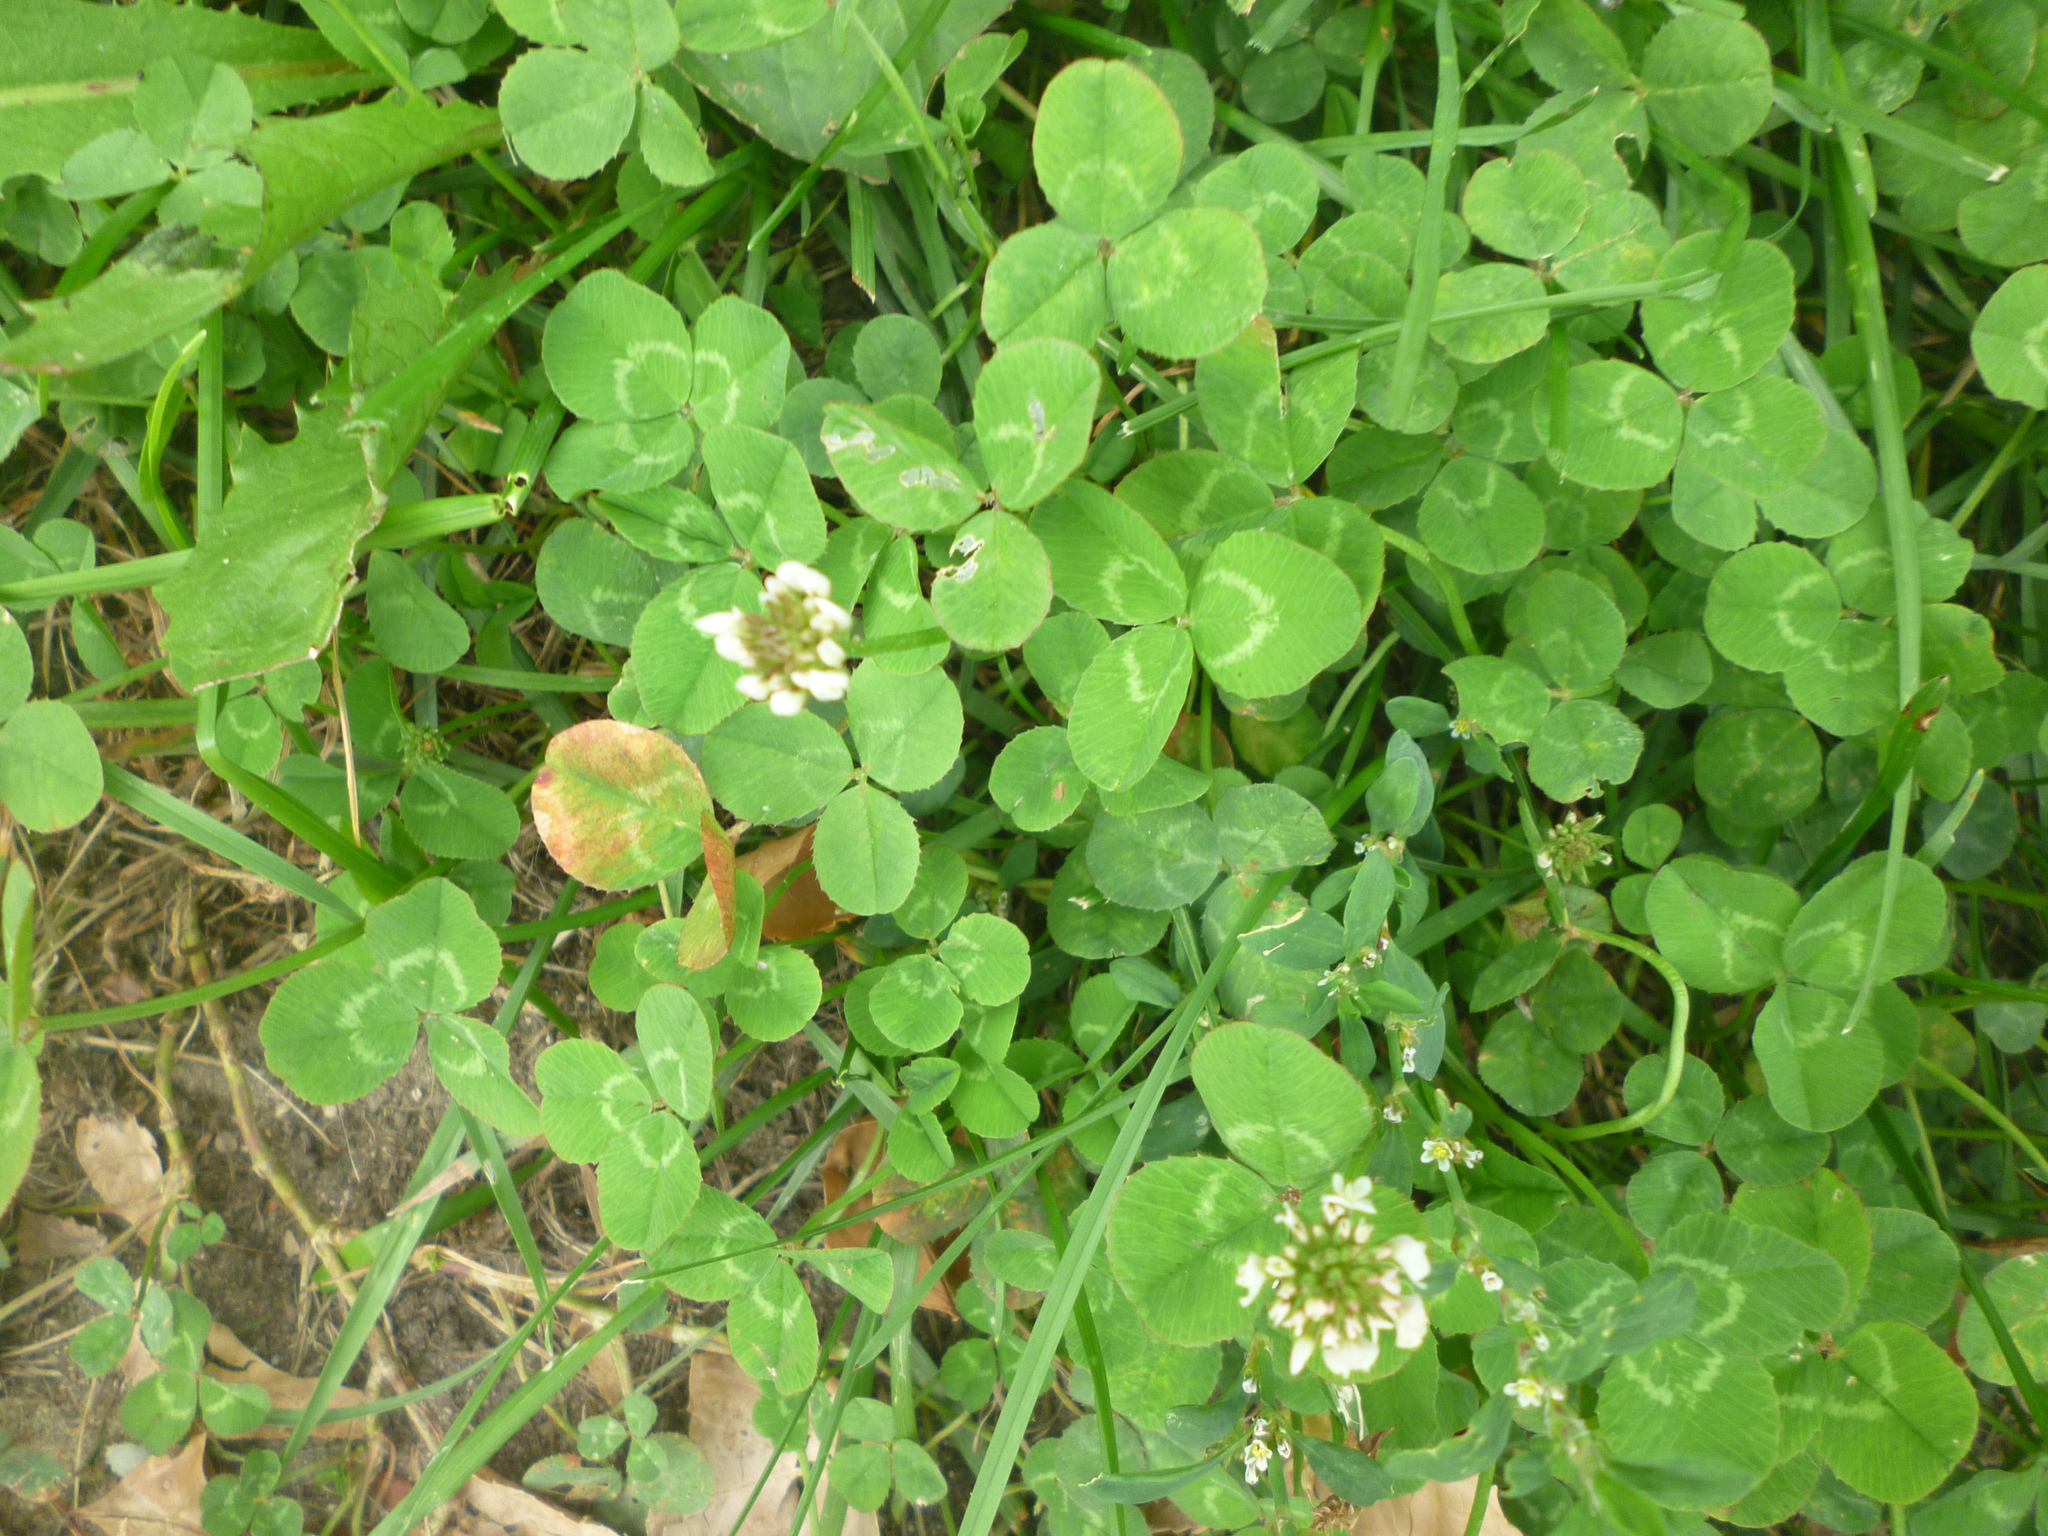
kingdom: Plantae
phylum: Tracheophyta
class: Magnoliopsida
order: Fabales
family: Fabaceae
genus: Trifolium
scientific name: Trifolium repens
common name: White clover
